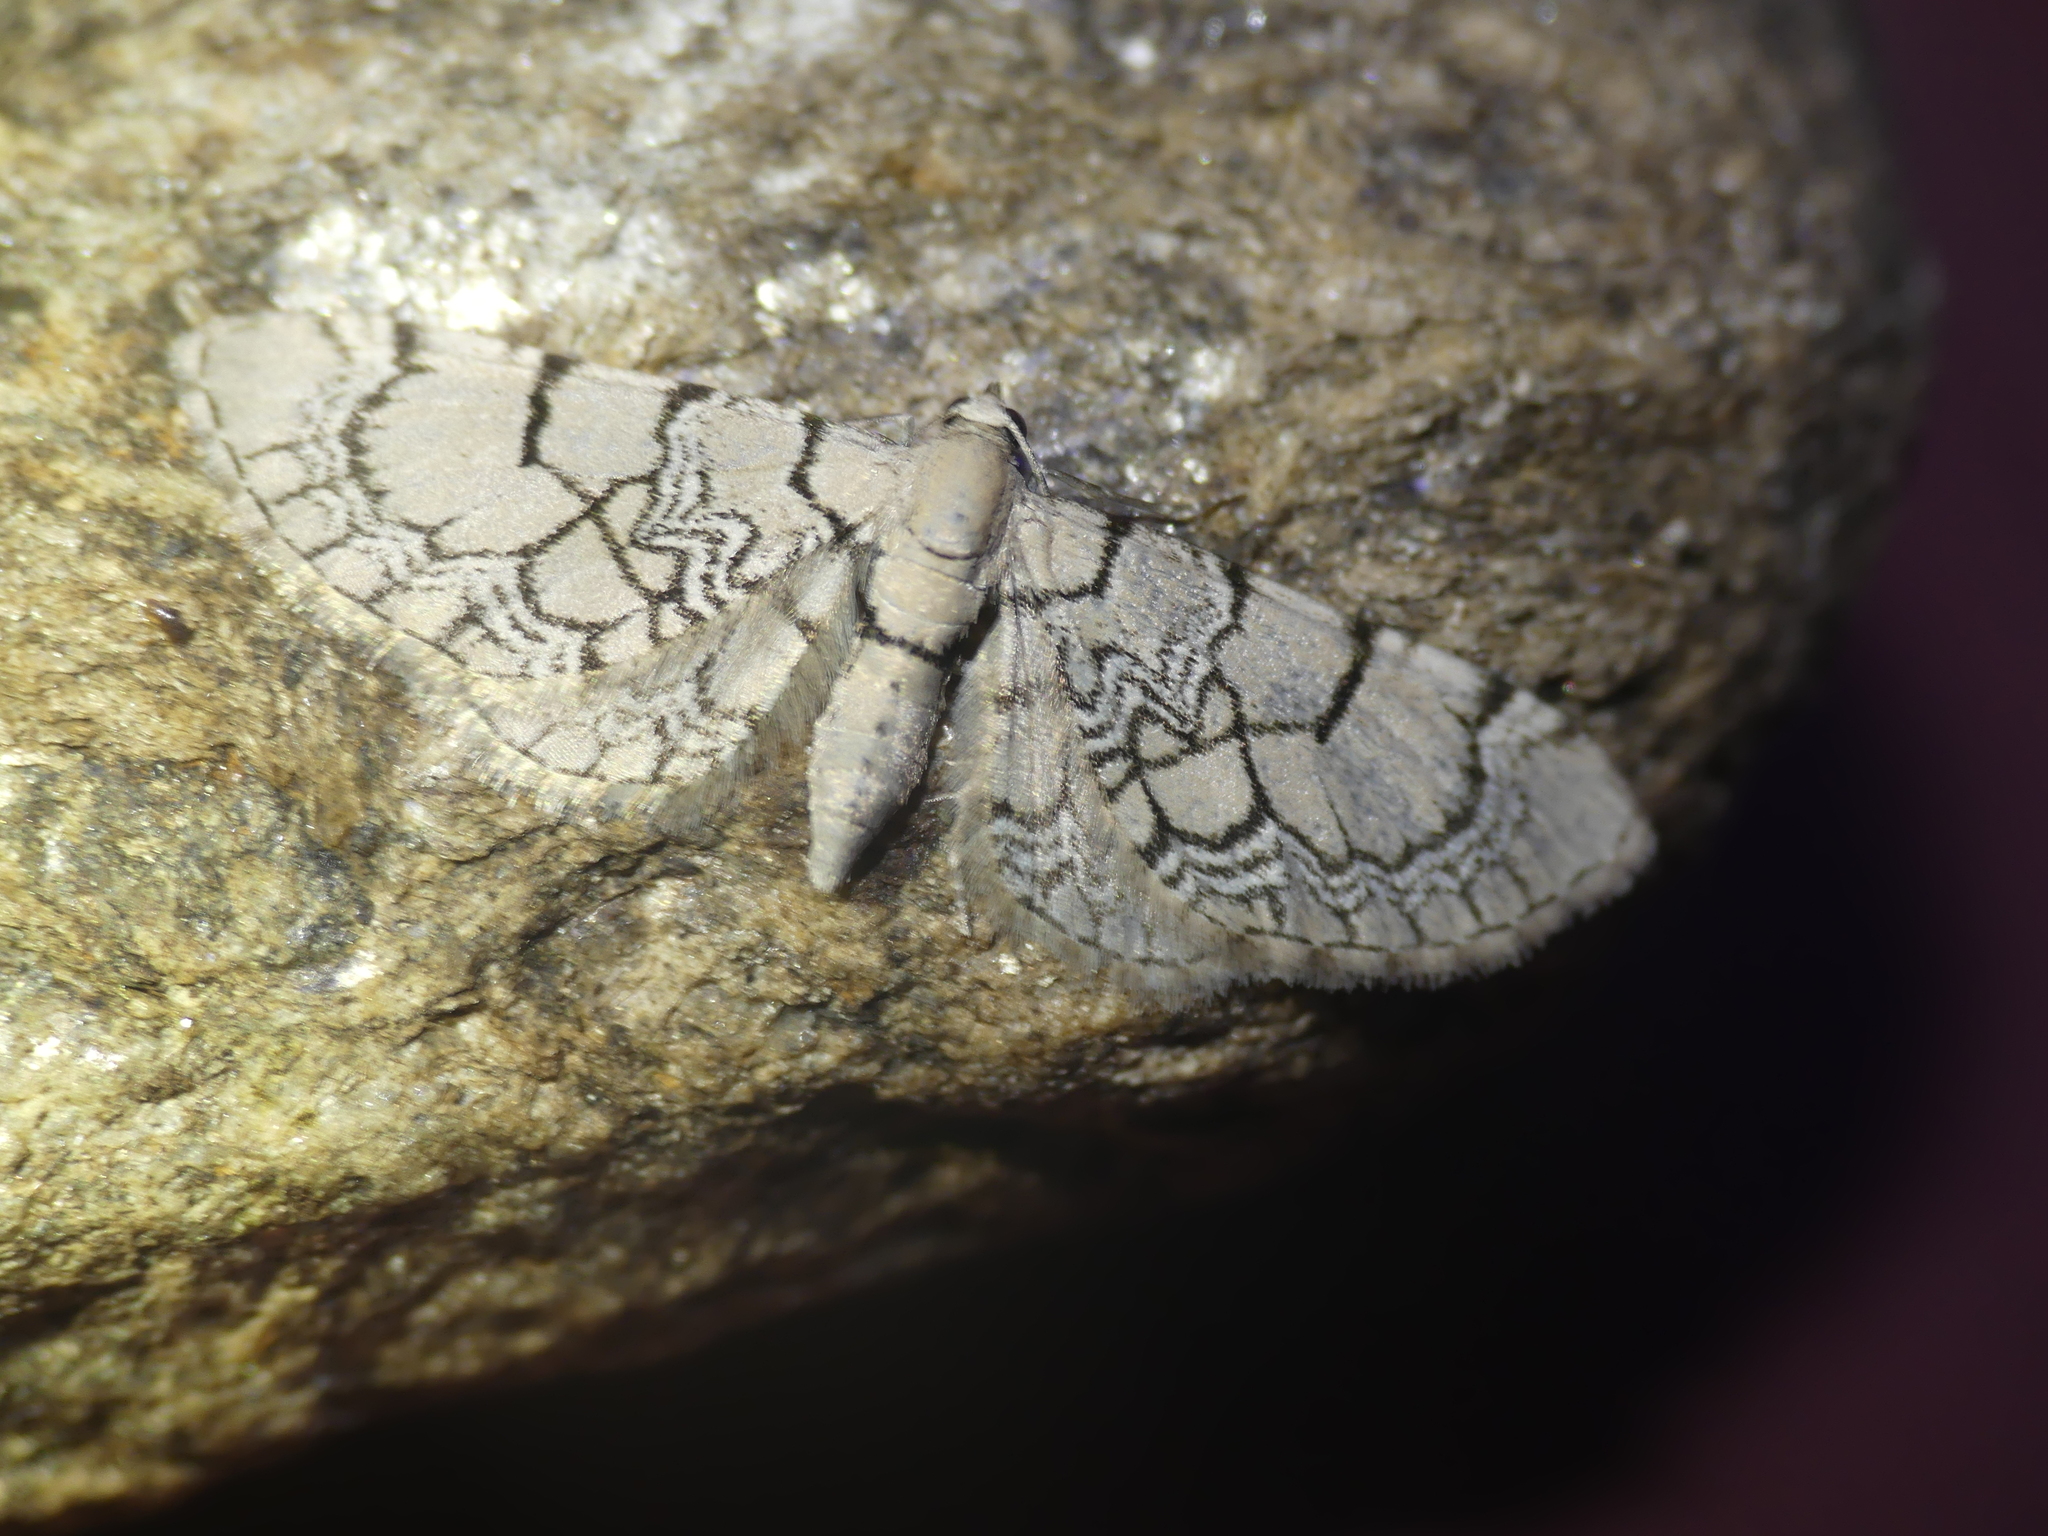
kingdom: Animalia
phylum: Arthropoda
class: Insecta
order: Lepidoptera
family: Geometridae
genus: Eupithecia
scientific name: Eupithecia venosata
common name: Netted pug
